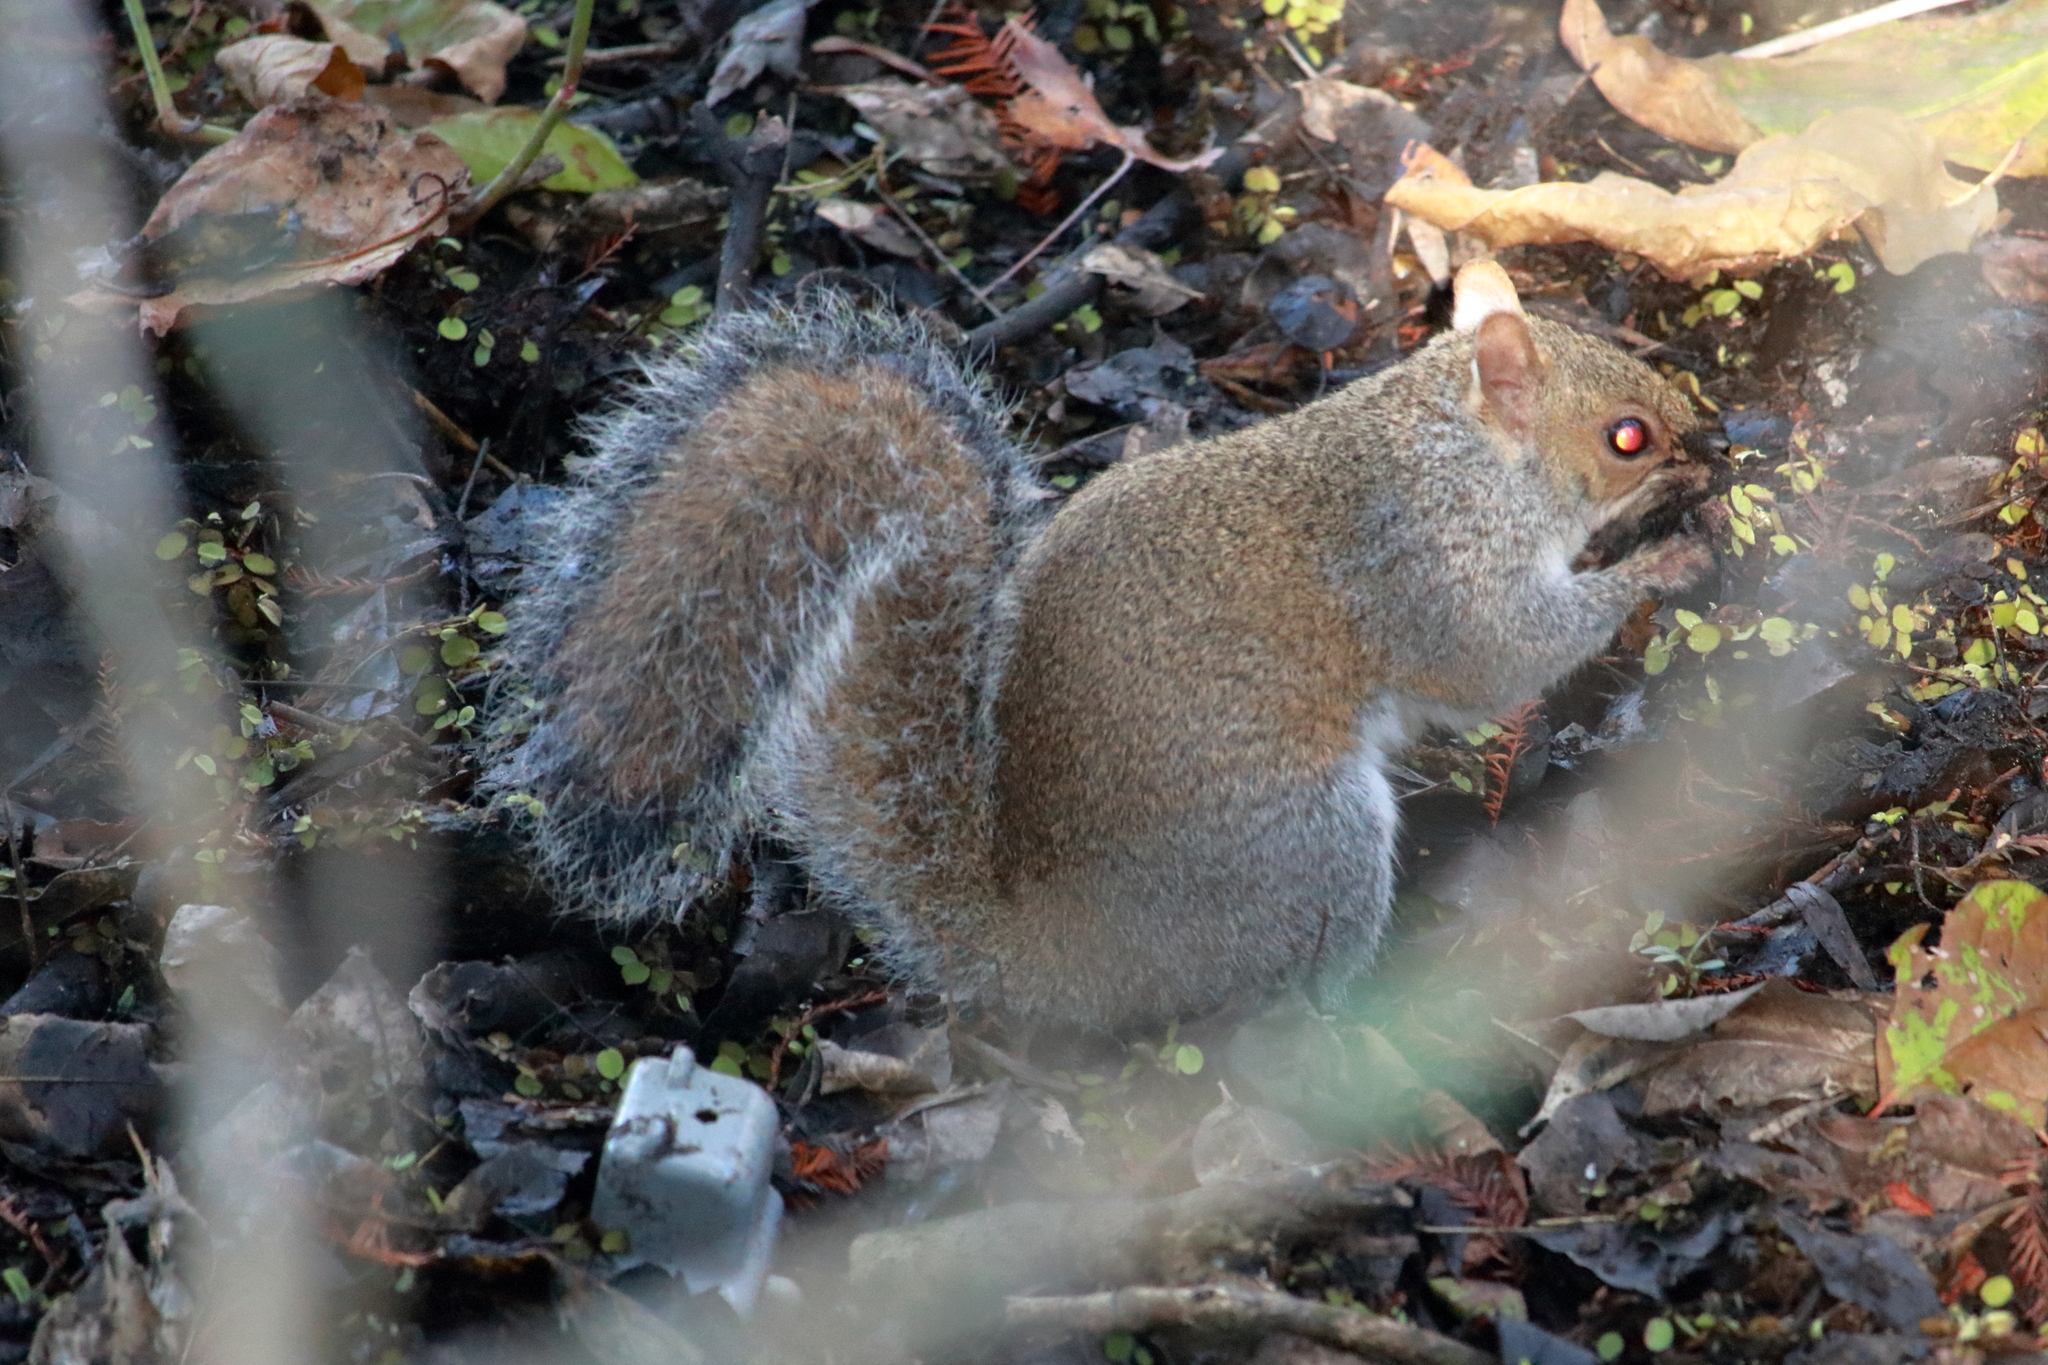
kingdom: Animalia
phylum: Chordata
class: Mammalia
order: Rodentia
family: Sciuridae
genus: Sciurus
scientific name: Sciurus carolinensis
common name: Eastern gray squirrel
